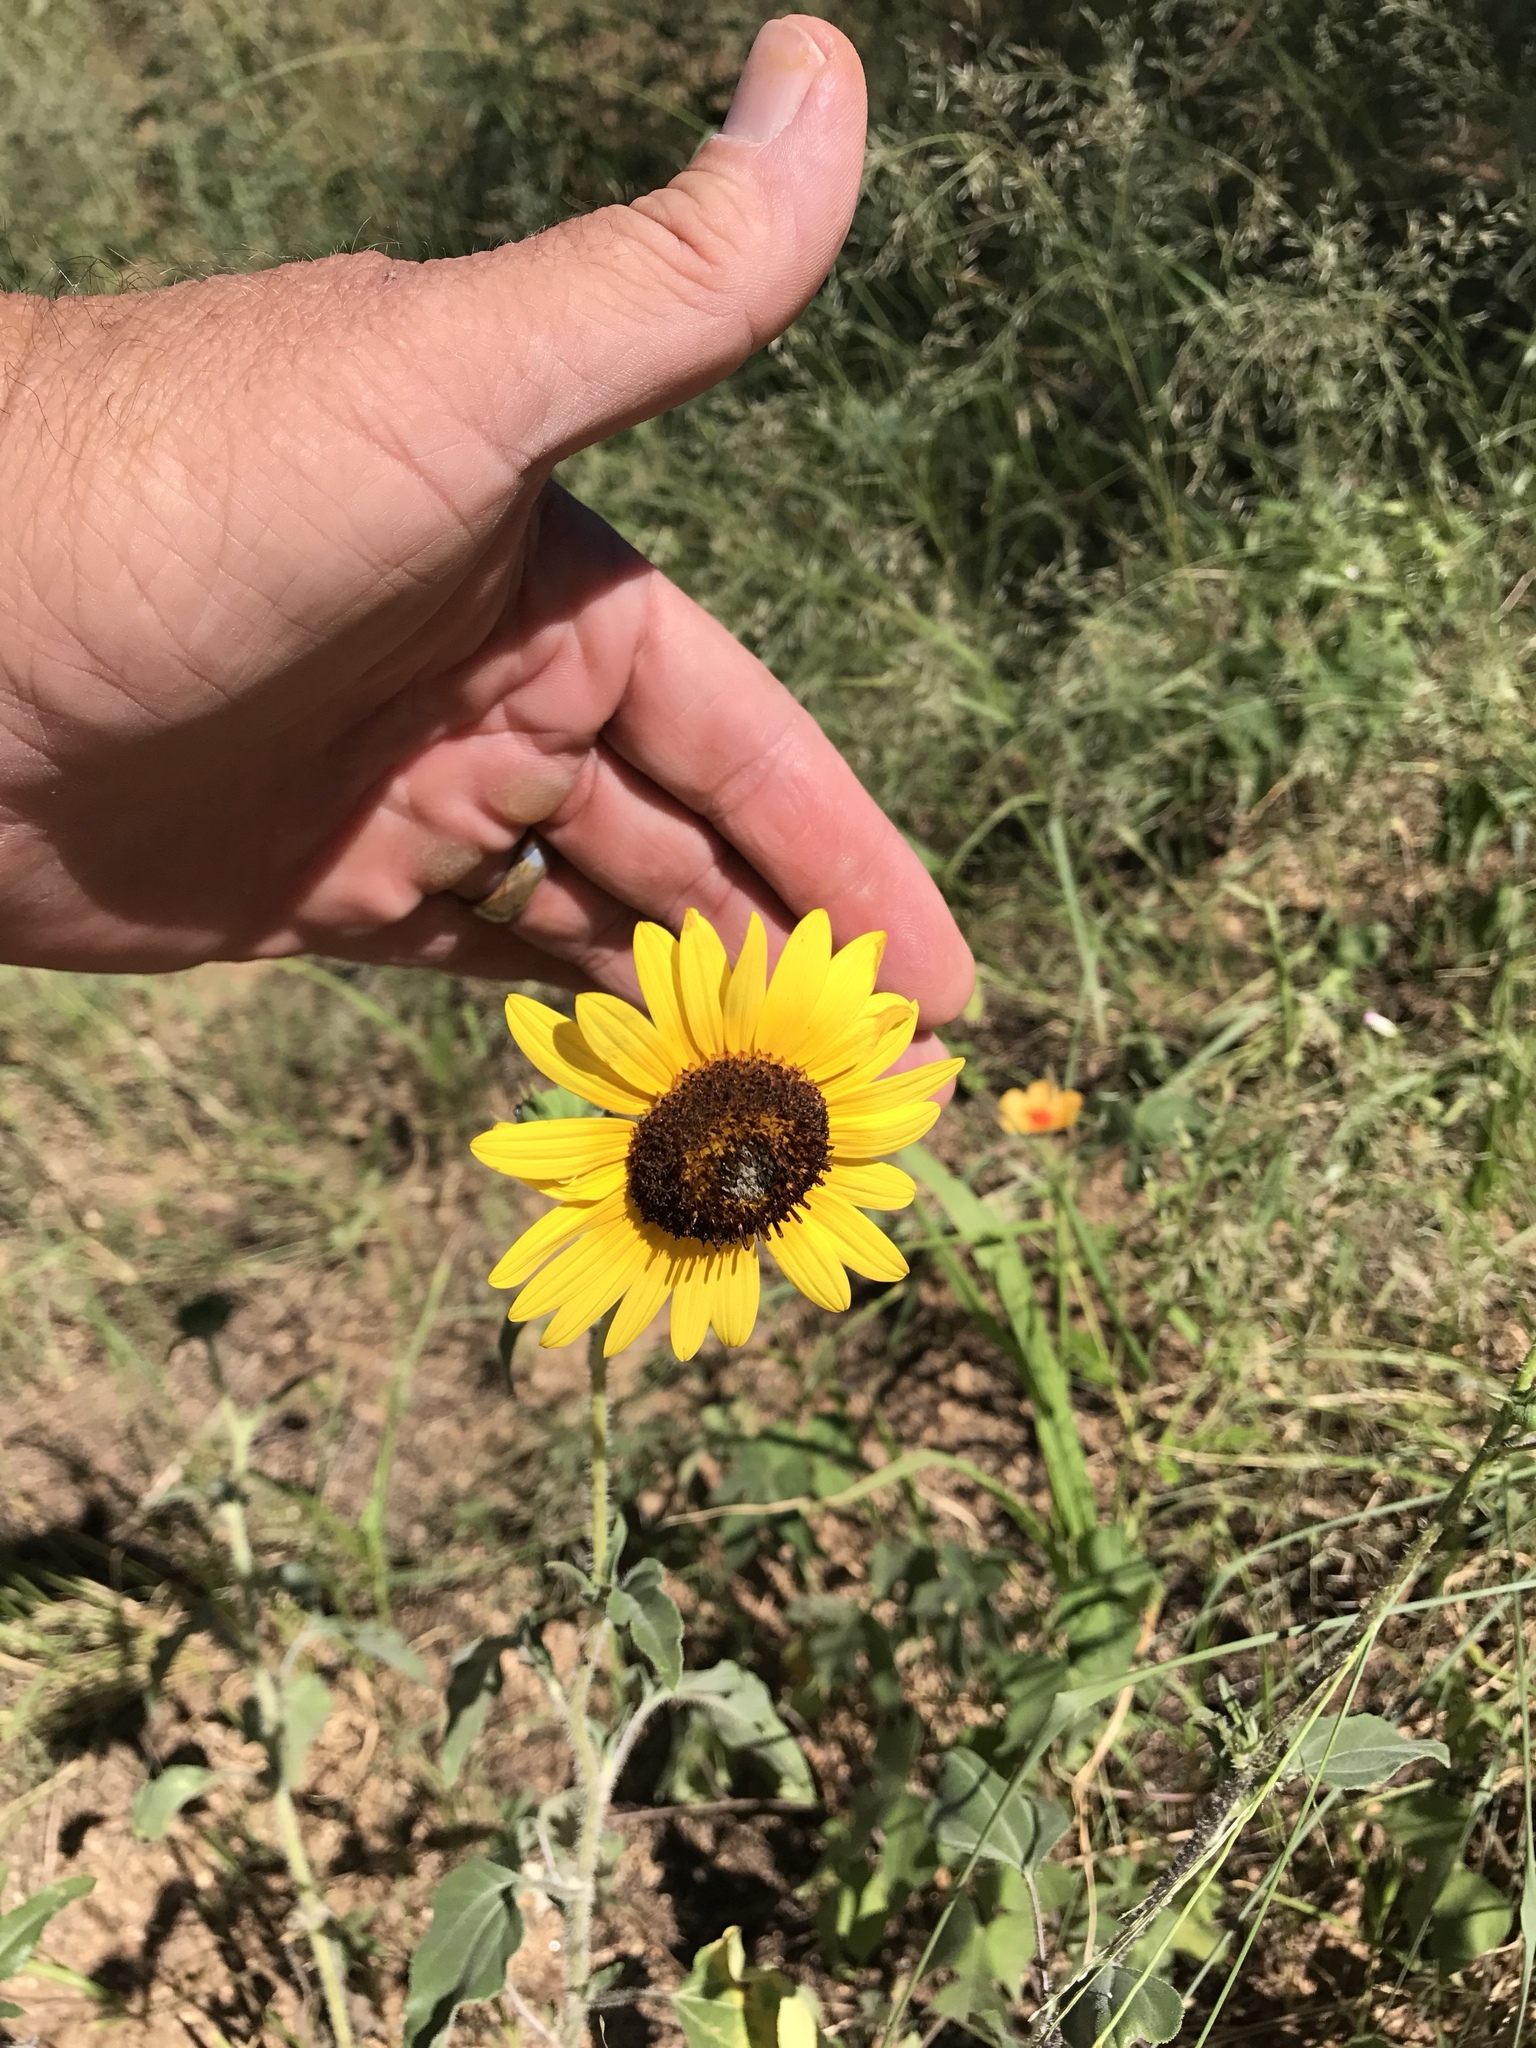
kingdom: Plantae
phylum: Tracheophyta
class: Magnoliopsida
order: Asterales
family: Asteraceae
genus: Helianthus
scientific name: Helianthus annuus
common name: Sunflower
